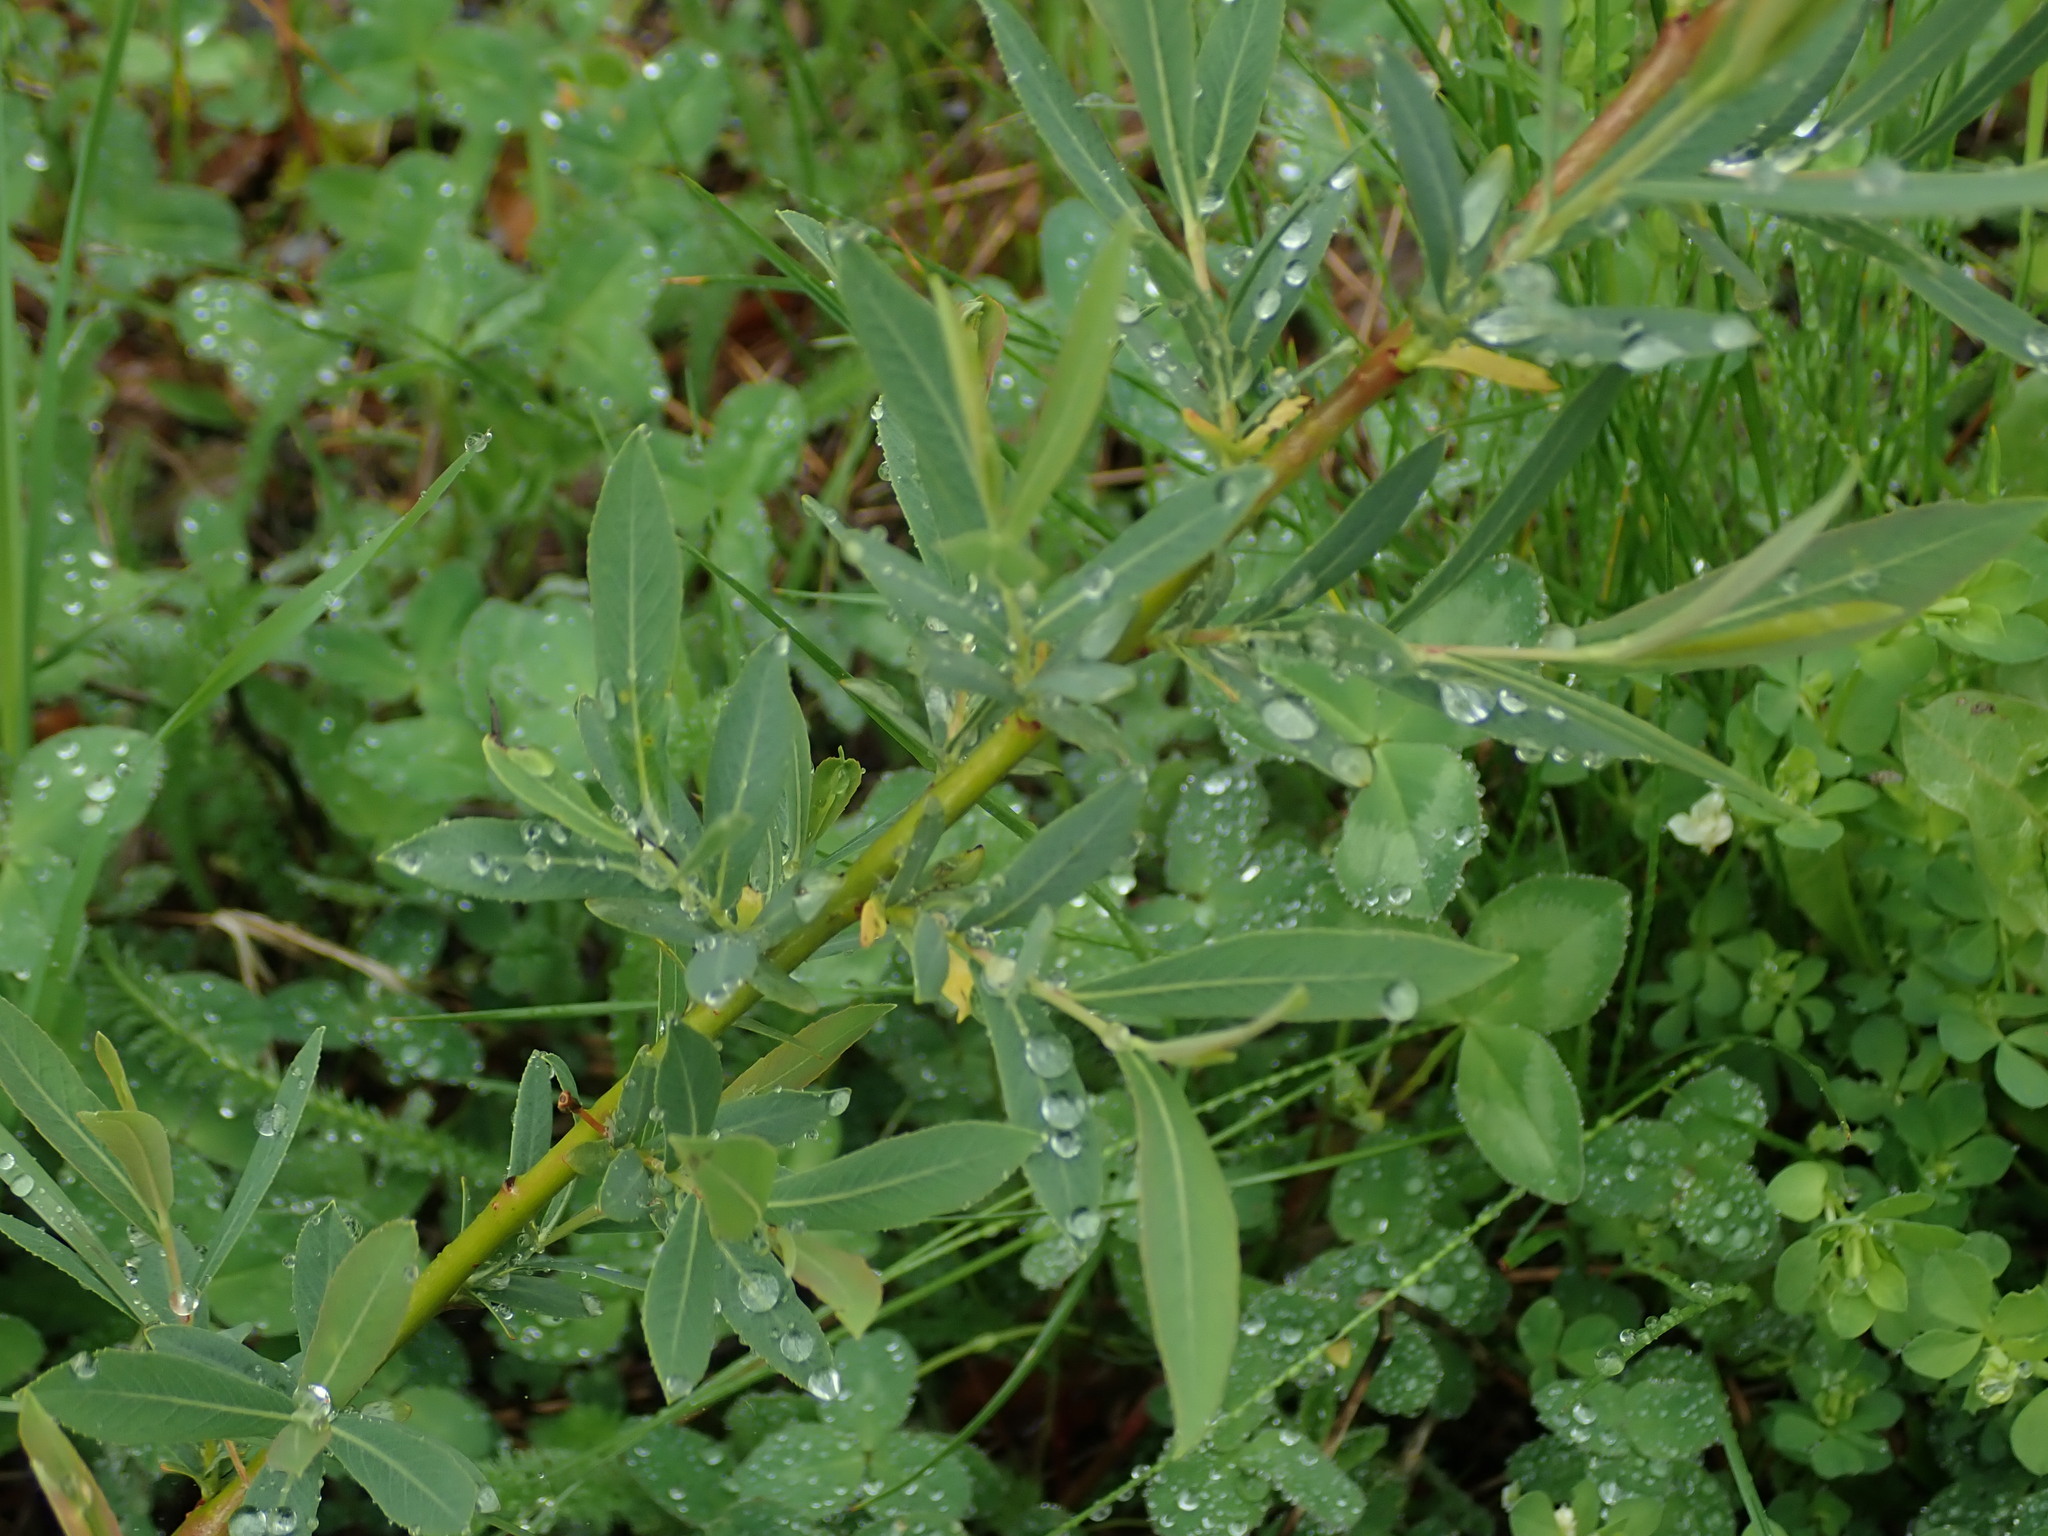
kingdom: Plantae
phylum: Tracheophyta
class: Magnoliopsida
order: Malpighiales
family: Salicaceae
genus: Salix
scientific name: Salix purpurea
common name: Purple willow
